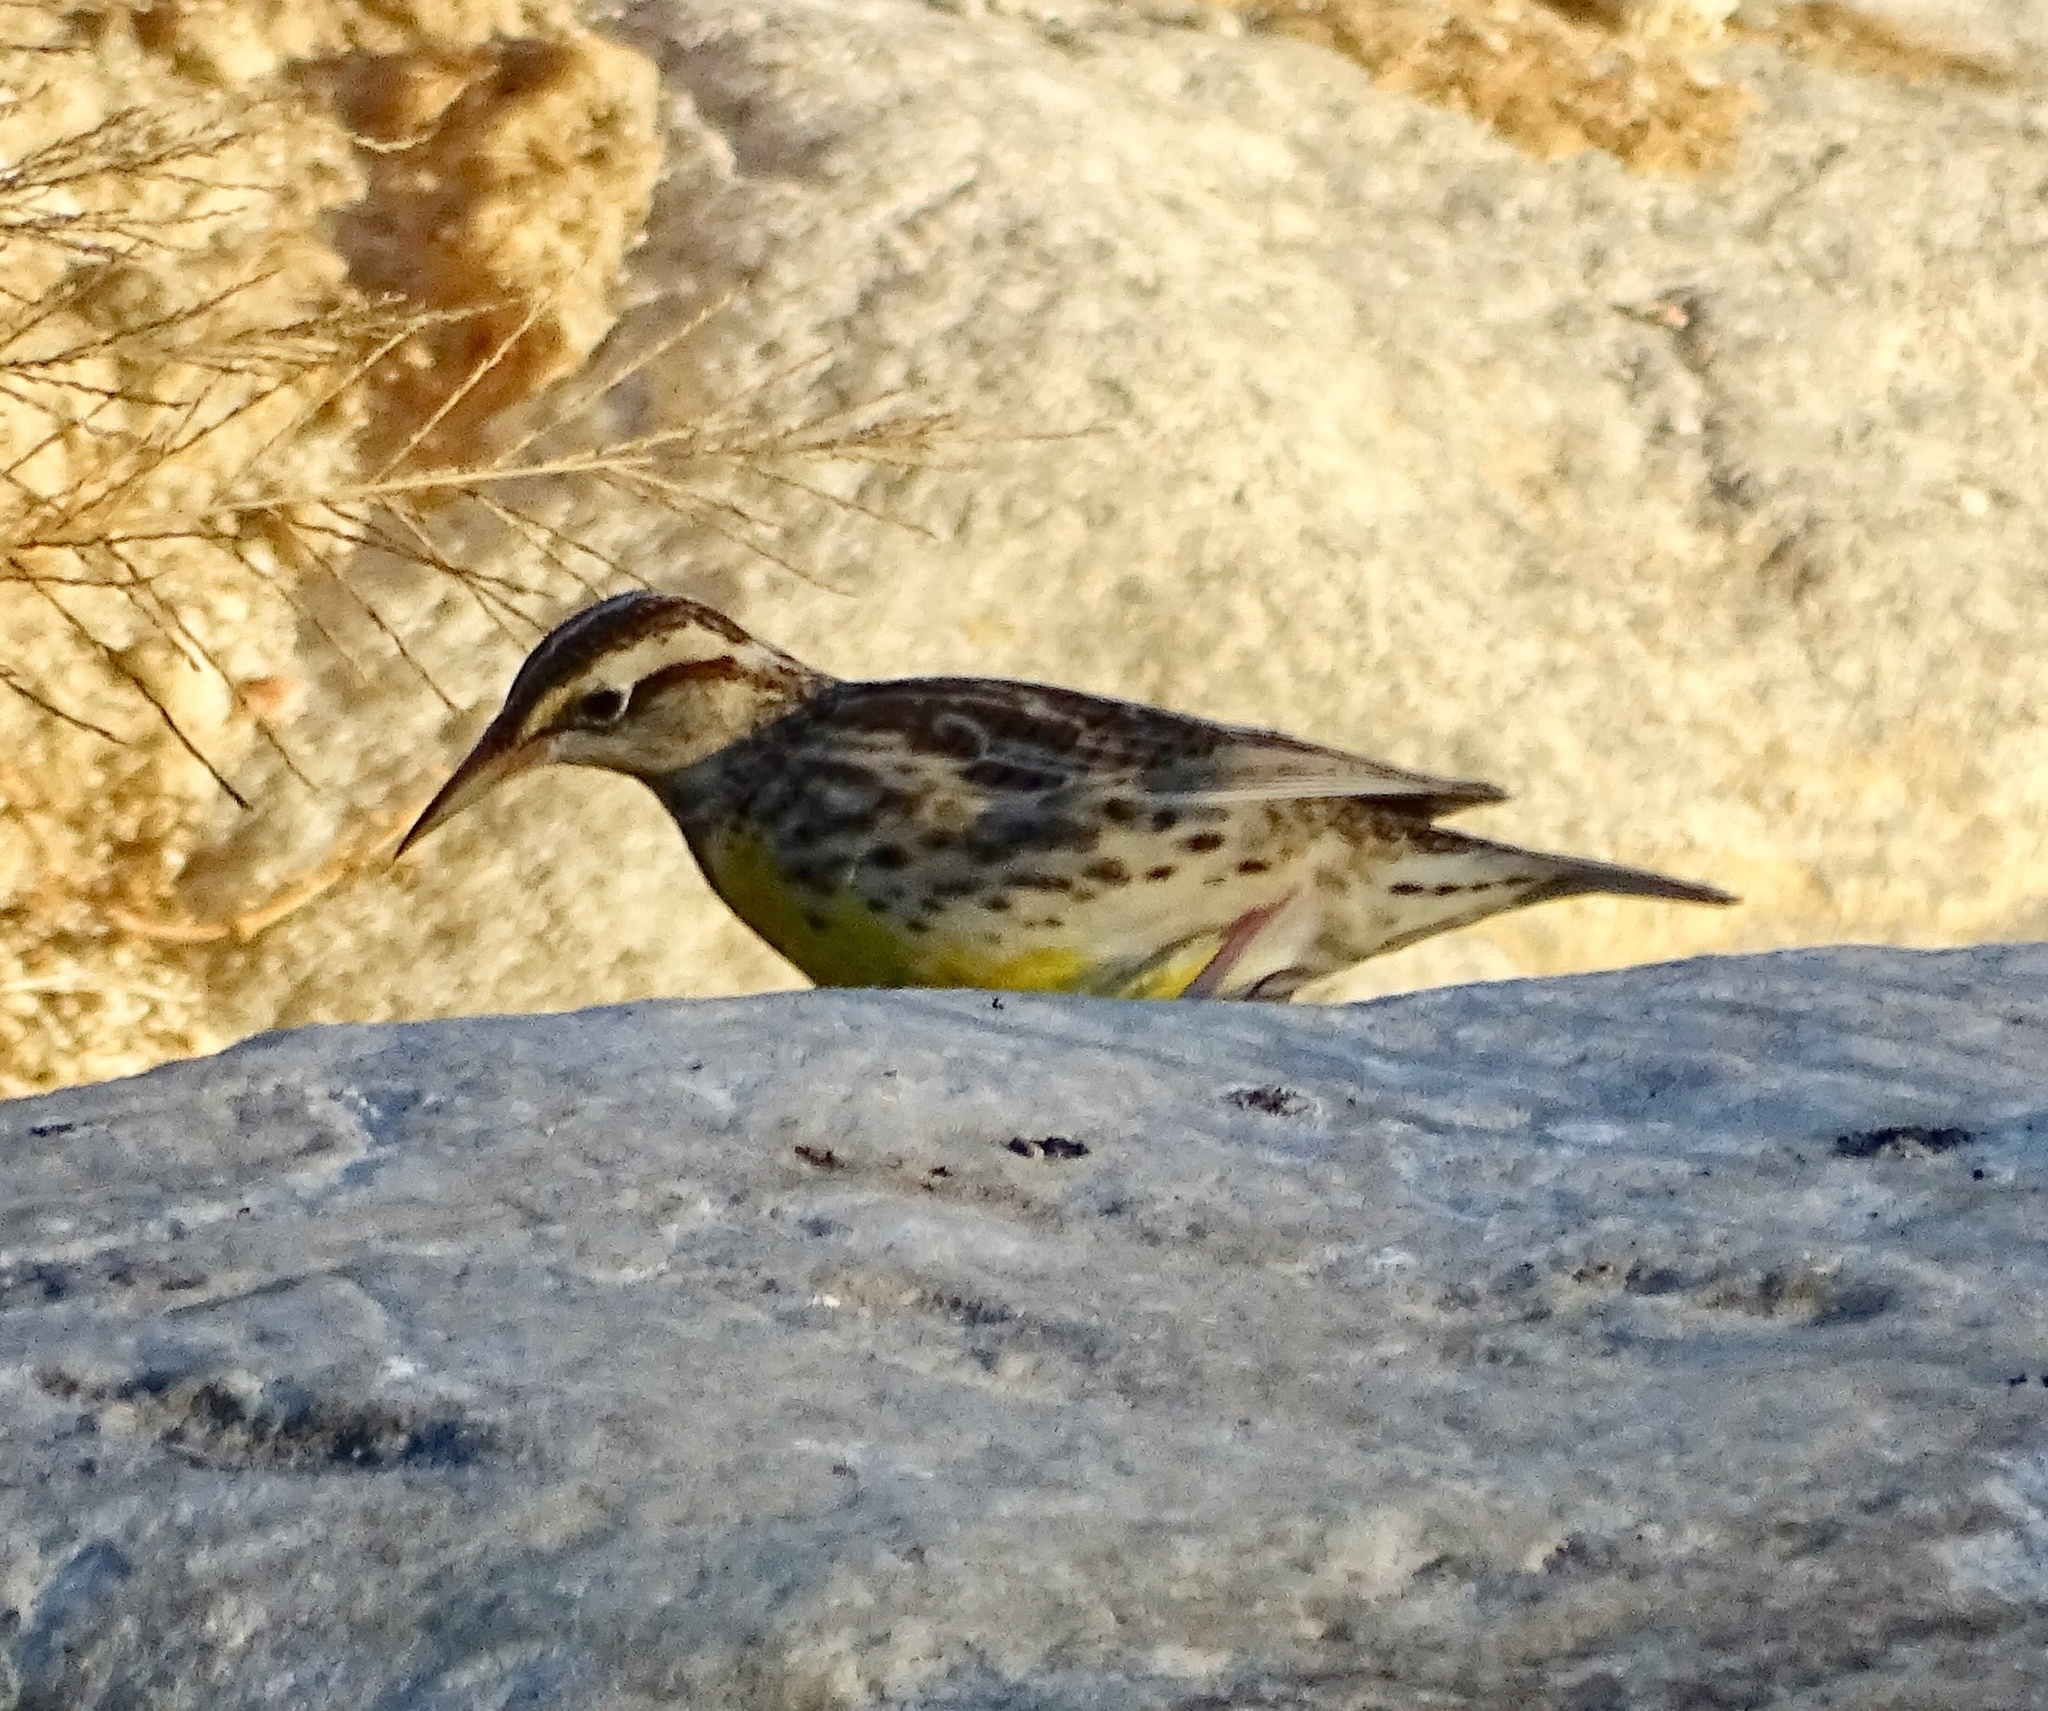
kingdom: Animalia
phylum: Chordata
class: Aves
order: Passeriformes
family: Icteridae
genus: Sturnella
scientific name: Sturnella neglecta
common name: Western meadowlark
